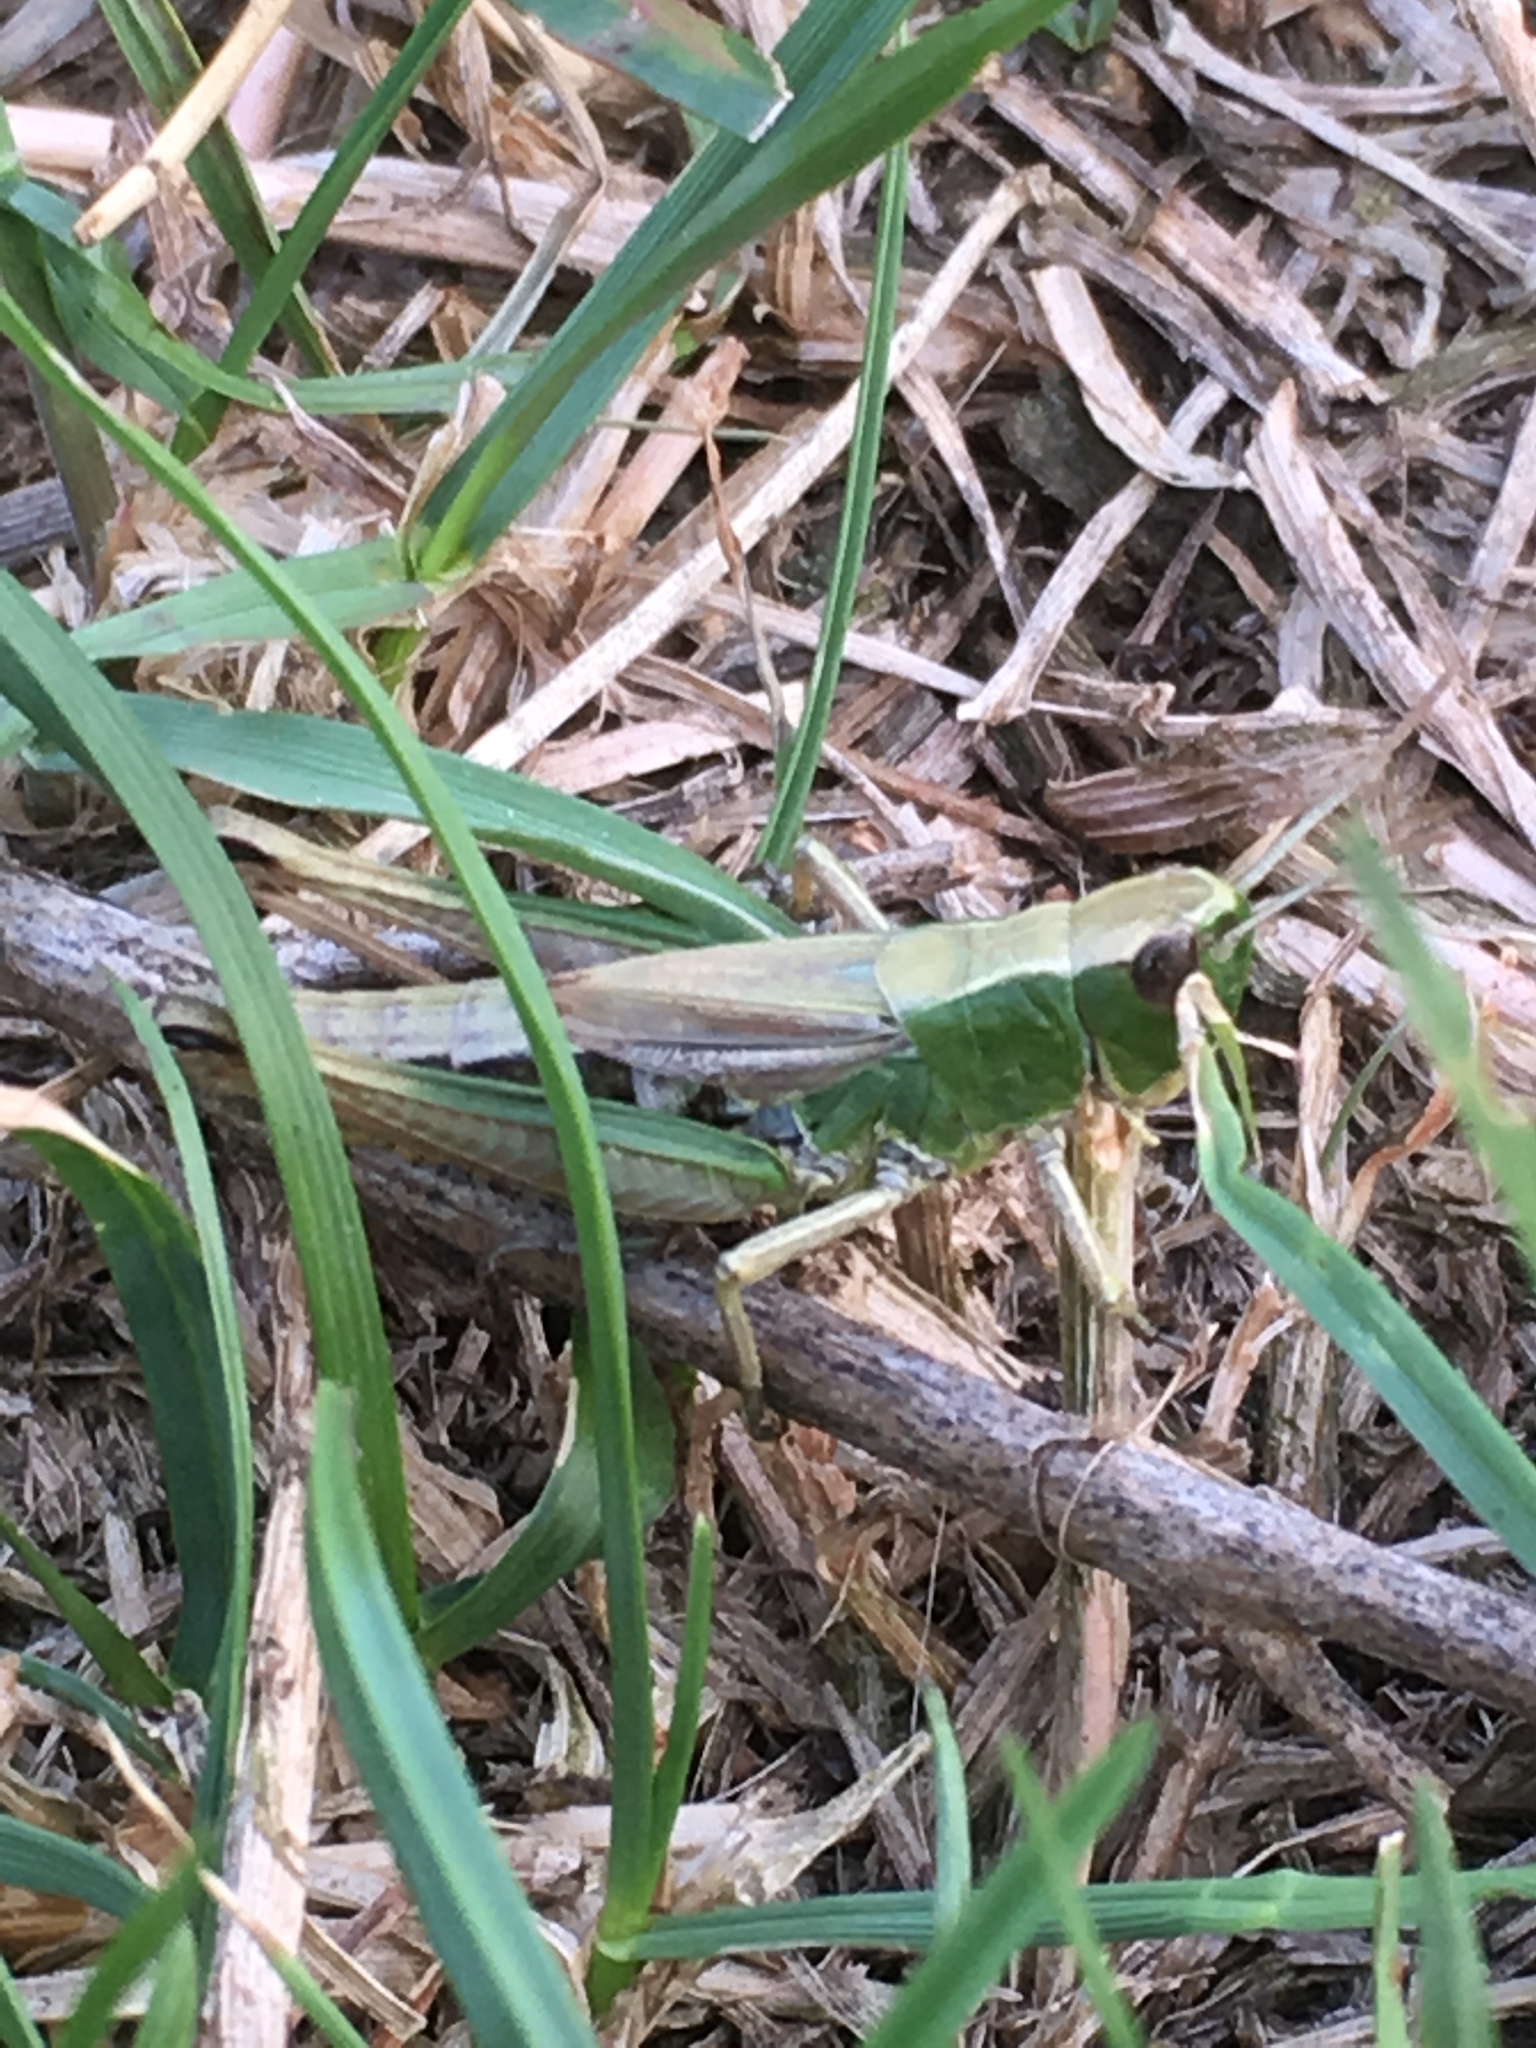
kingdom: Animalia
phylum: Arthropoda
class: Insecta
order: Orthoptera
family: Acrididae
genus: Pseudochorthippus
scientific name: Pseudochorthippus parallelus
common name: Meadow grasshopper
